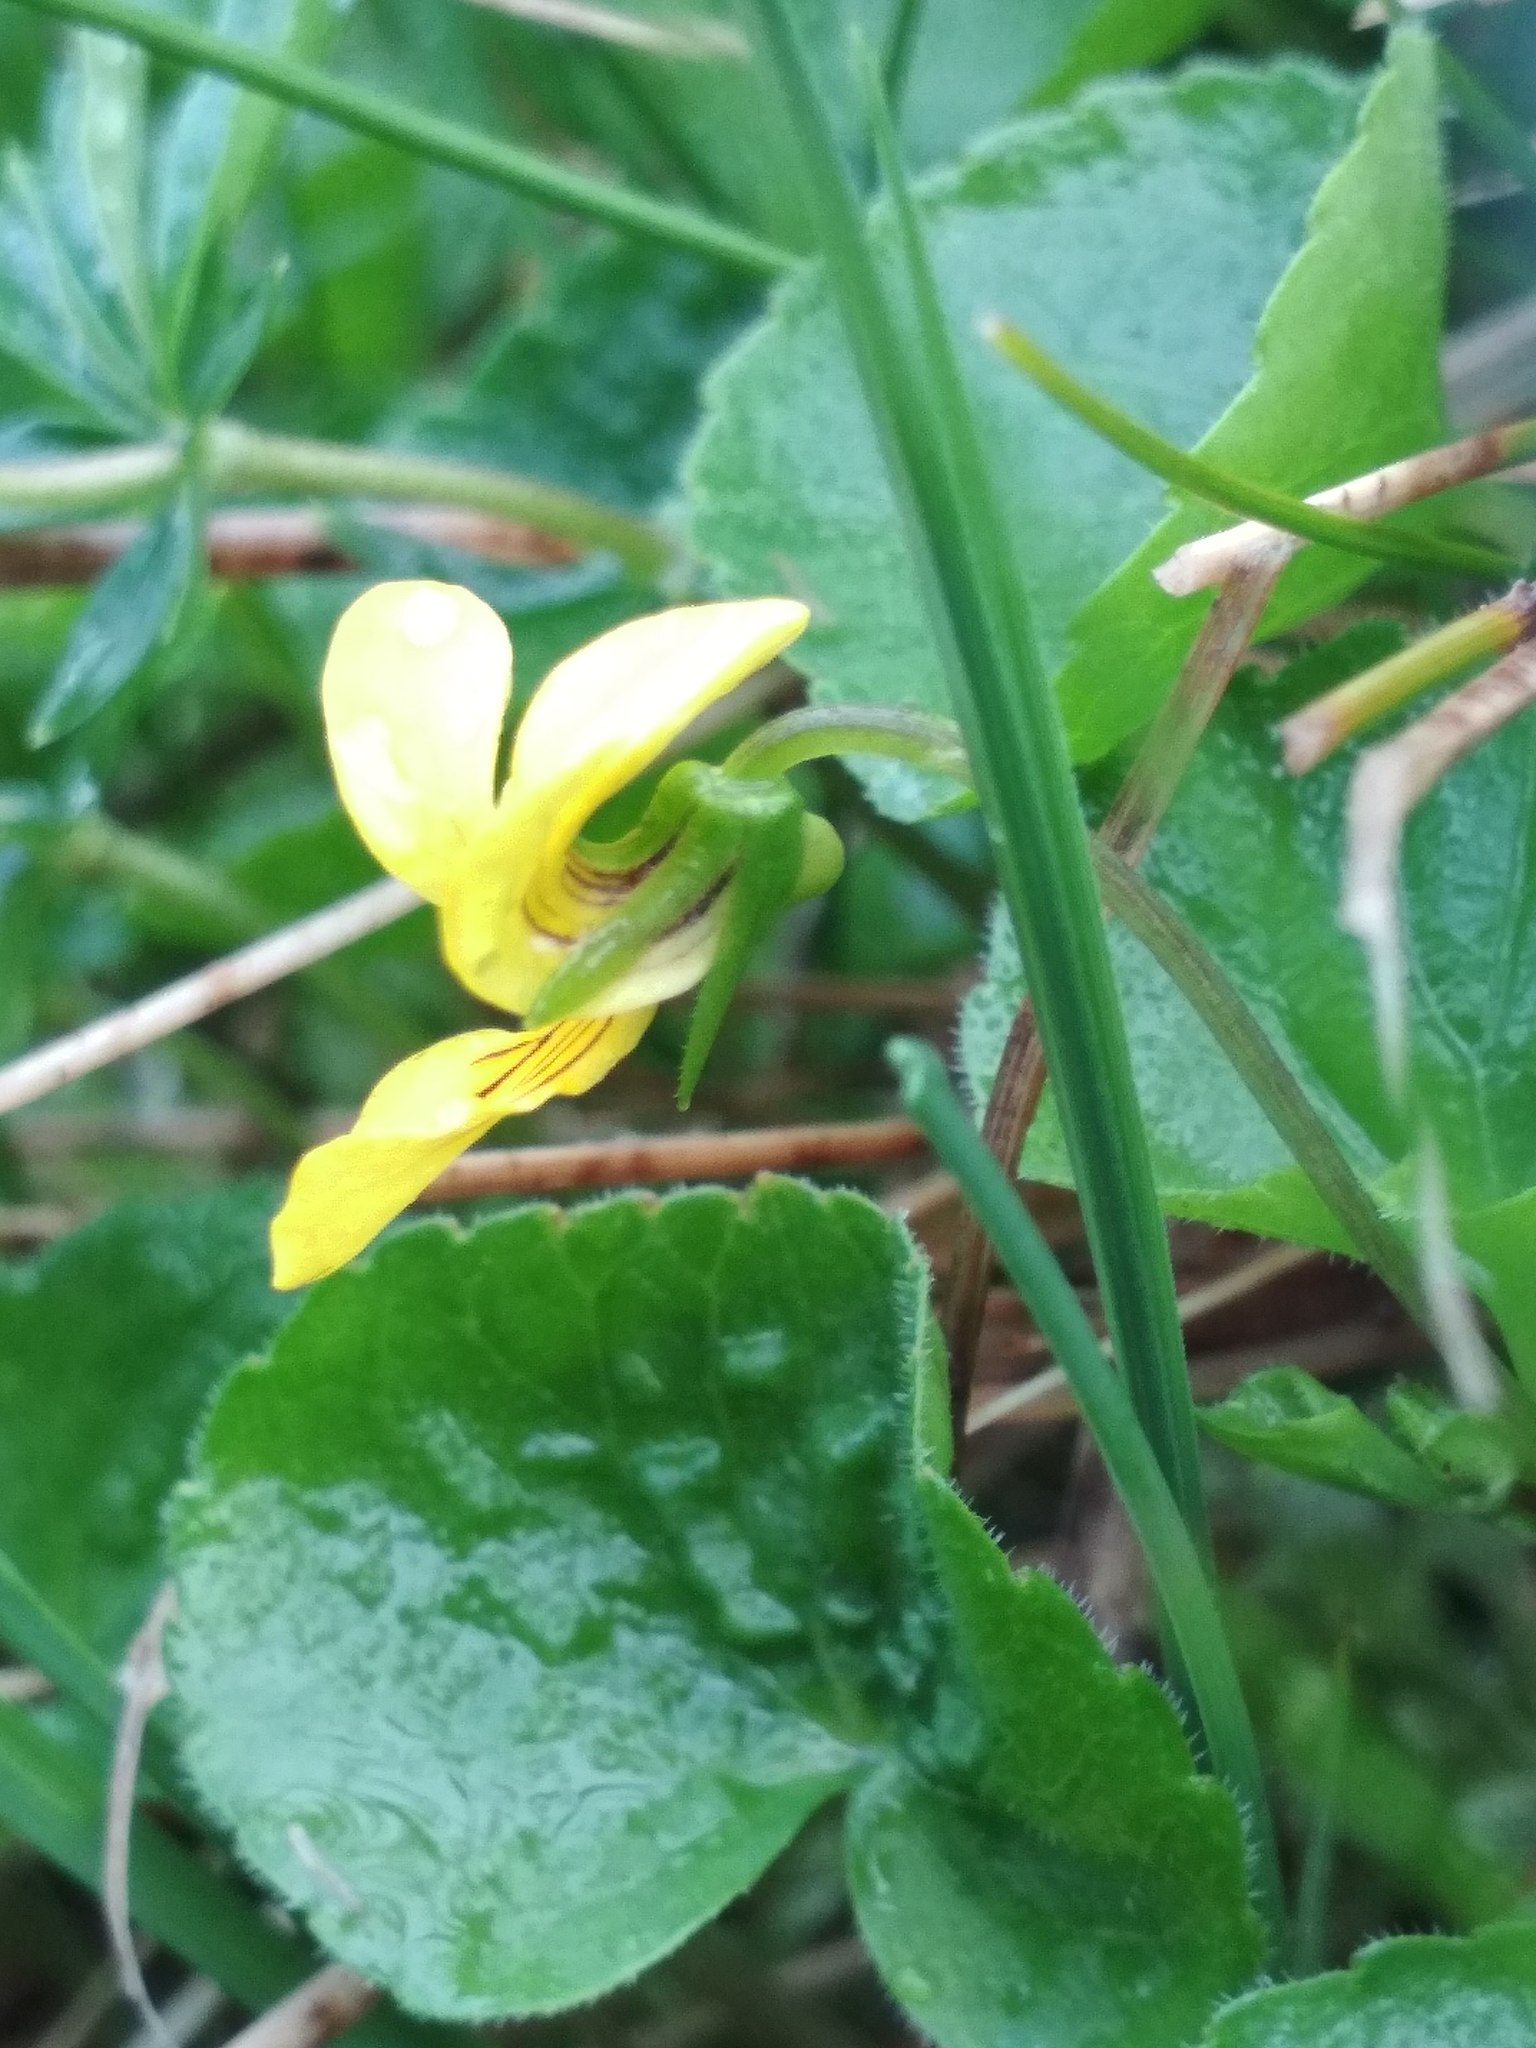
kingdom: Plantae
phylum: Tracheophyta
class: Magnoliopsida
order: Malpighiales
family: Violaceae
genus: Viola
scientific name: Viola biflora
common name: Alpine yellow violet
